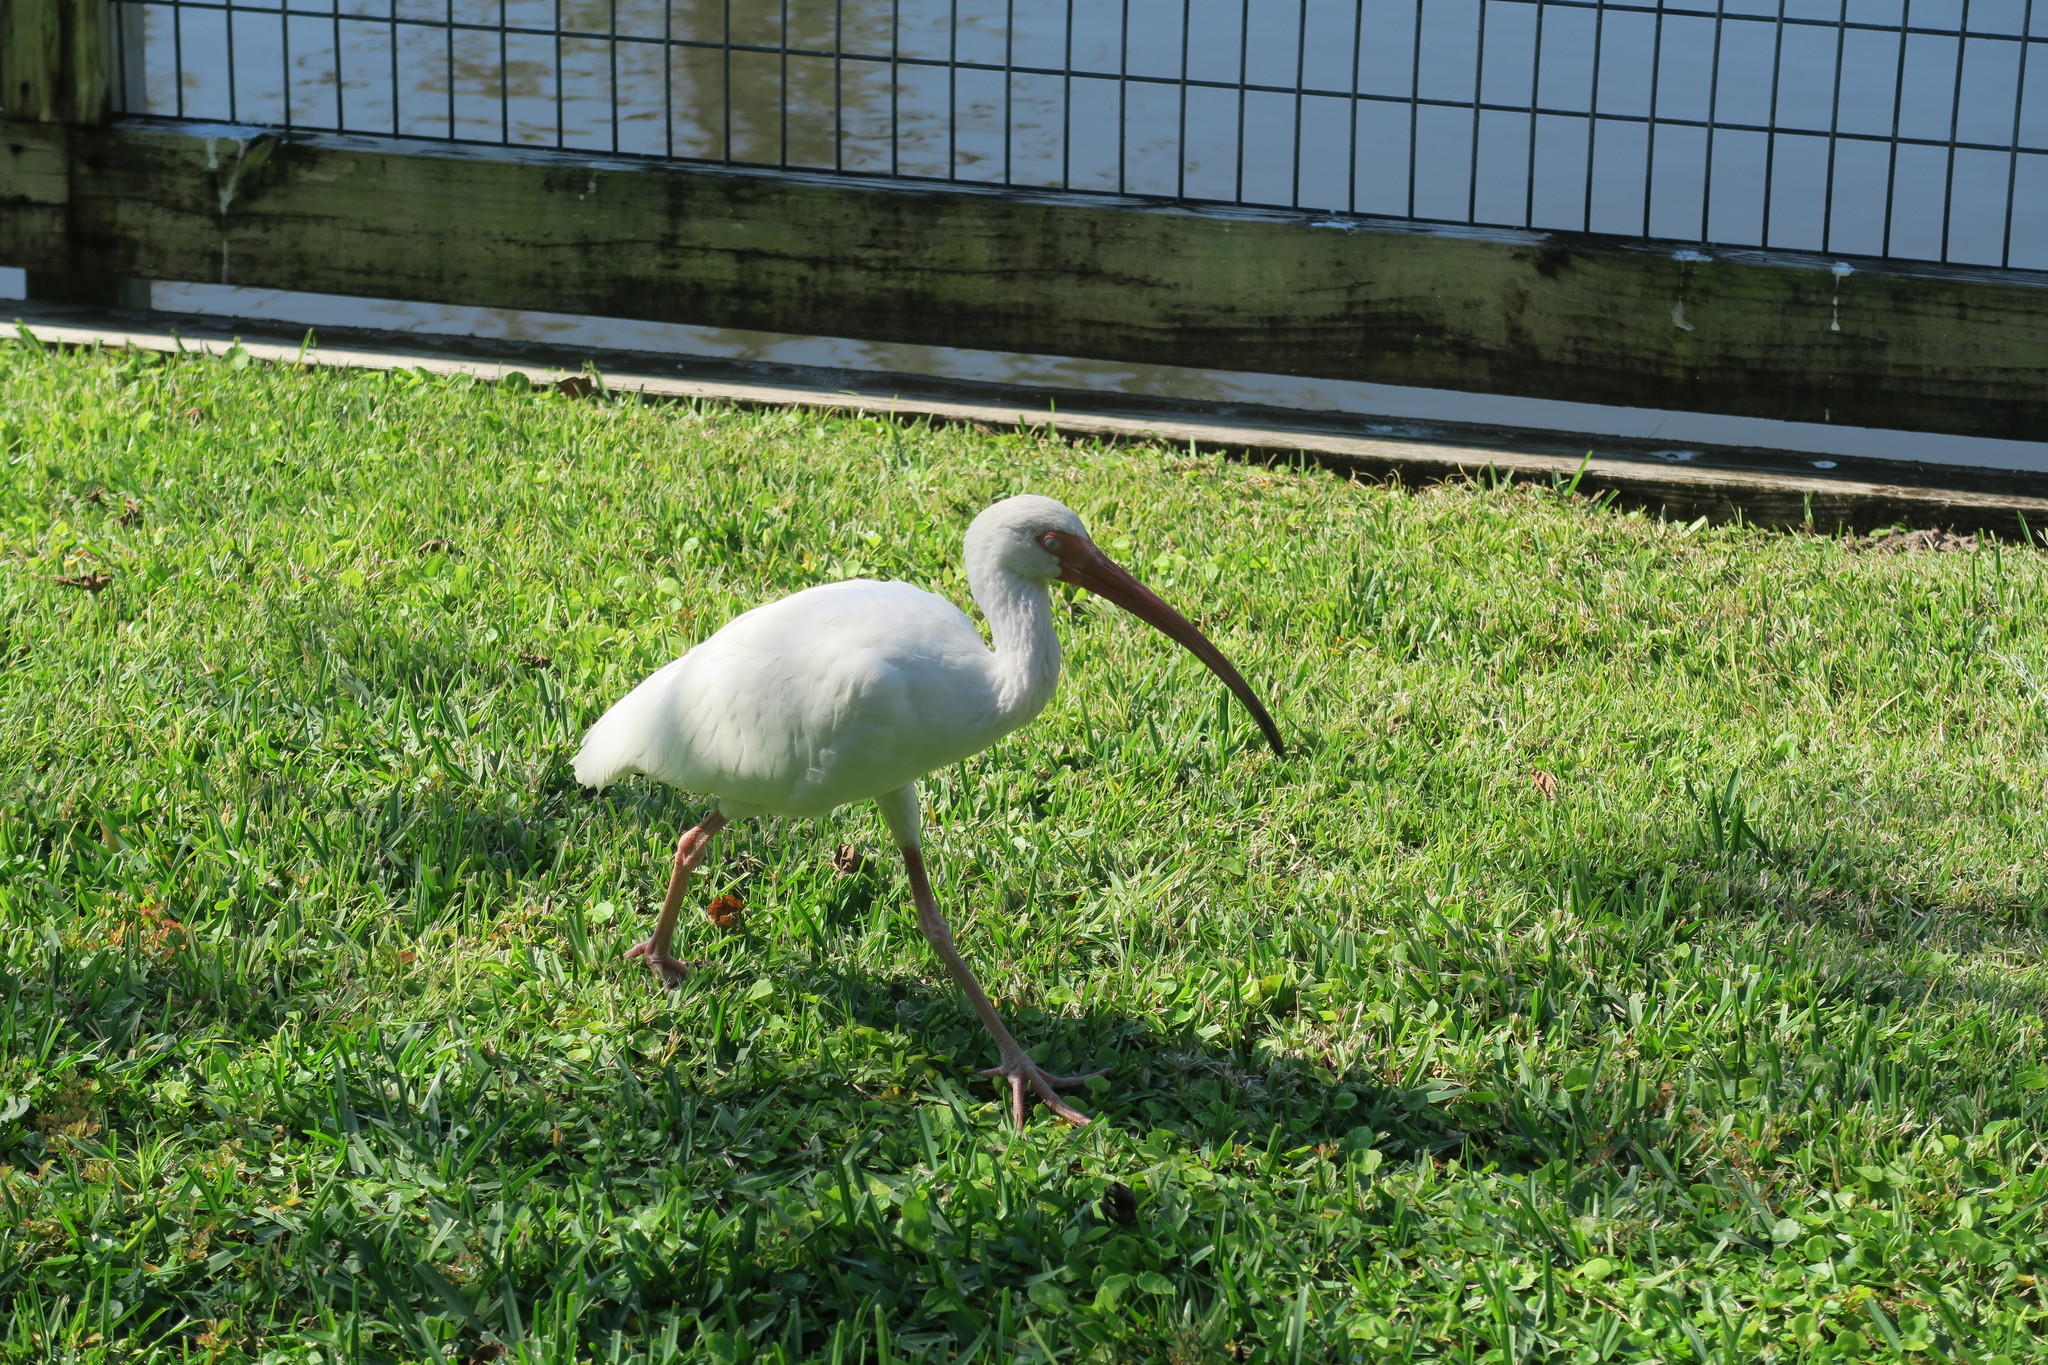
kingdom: Animalia
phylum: Chordata
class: Aves
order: Pelecaniformes
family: Threskiornithidae
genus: Eudocimus
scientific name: Eudocimus albus
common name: White ibis
